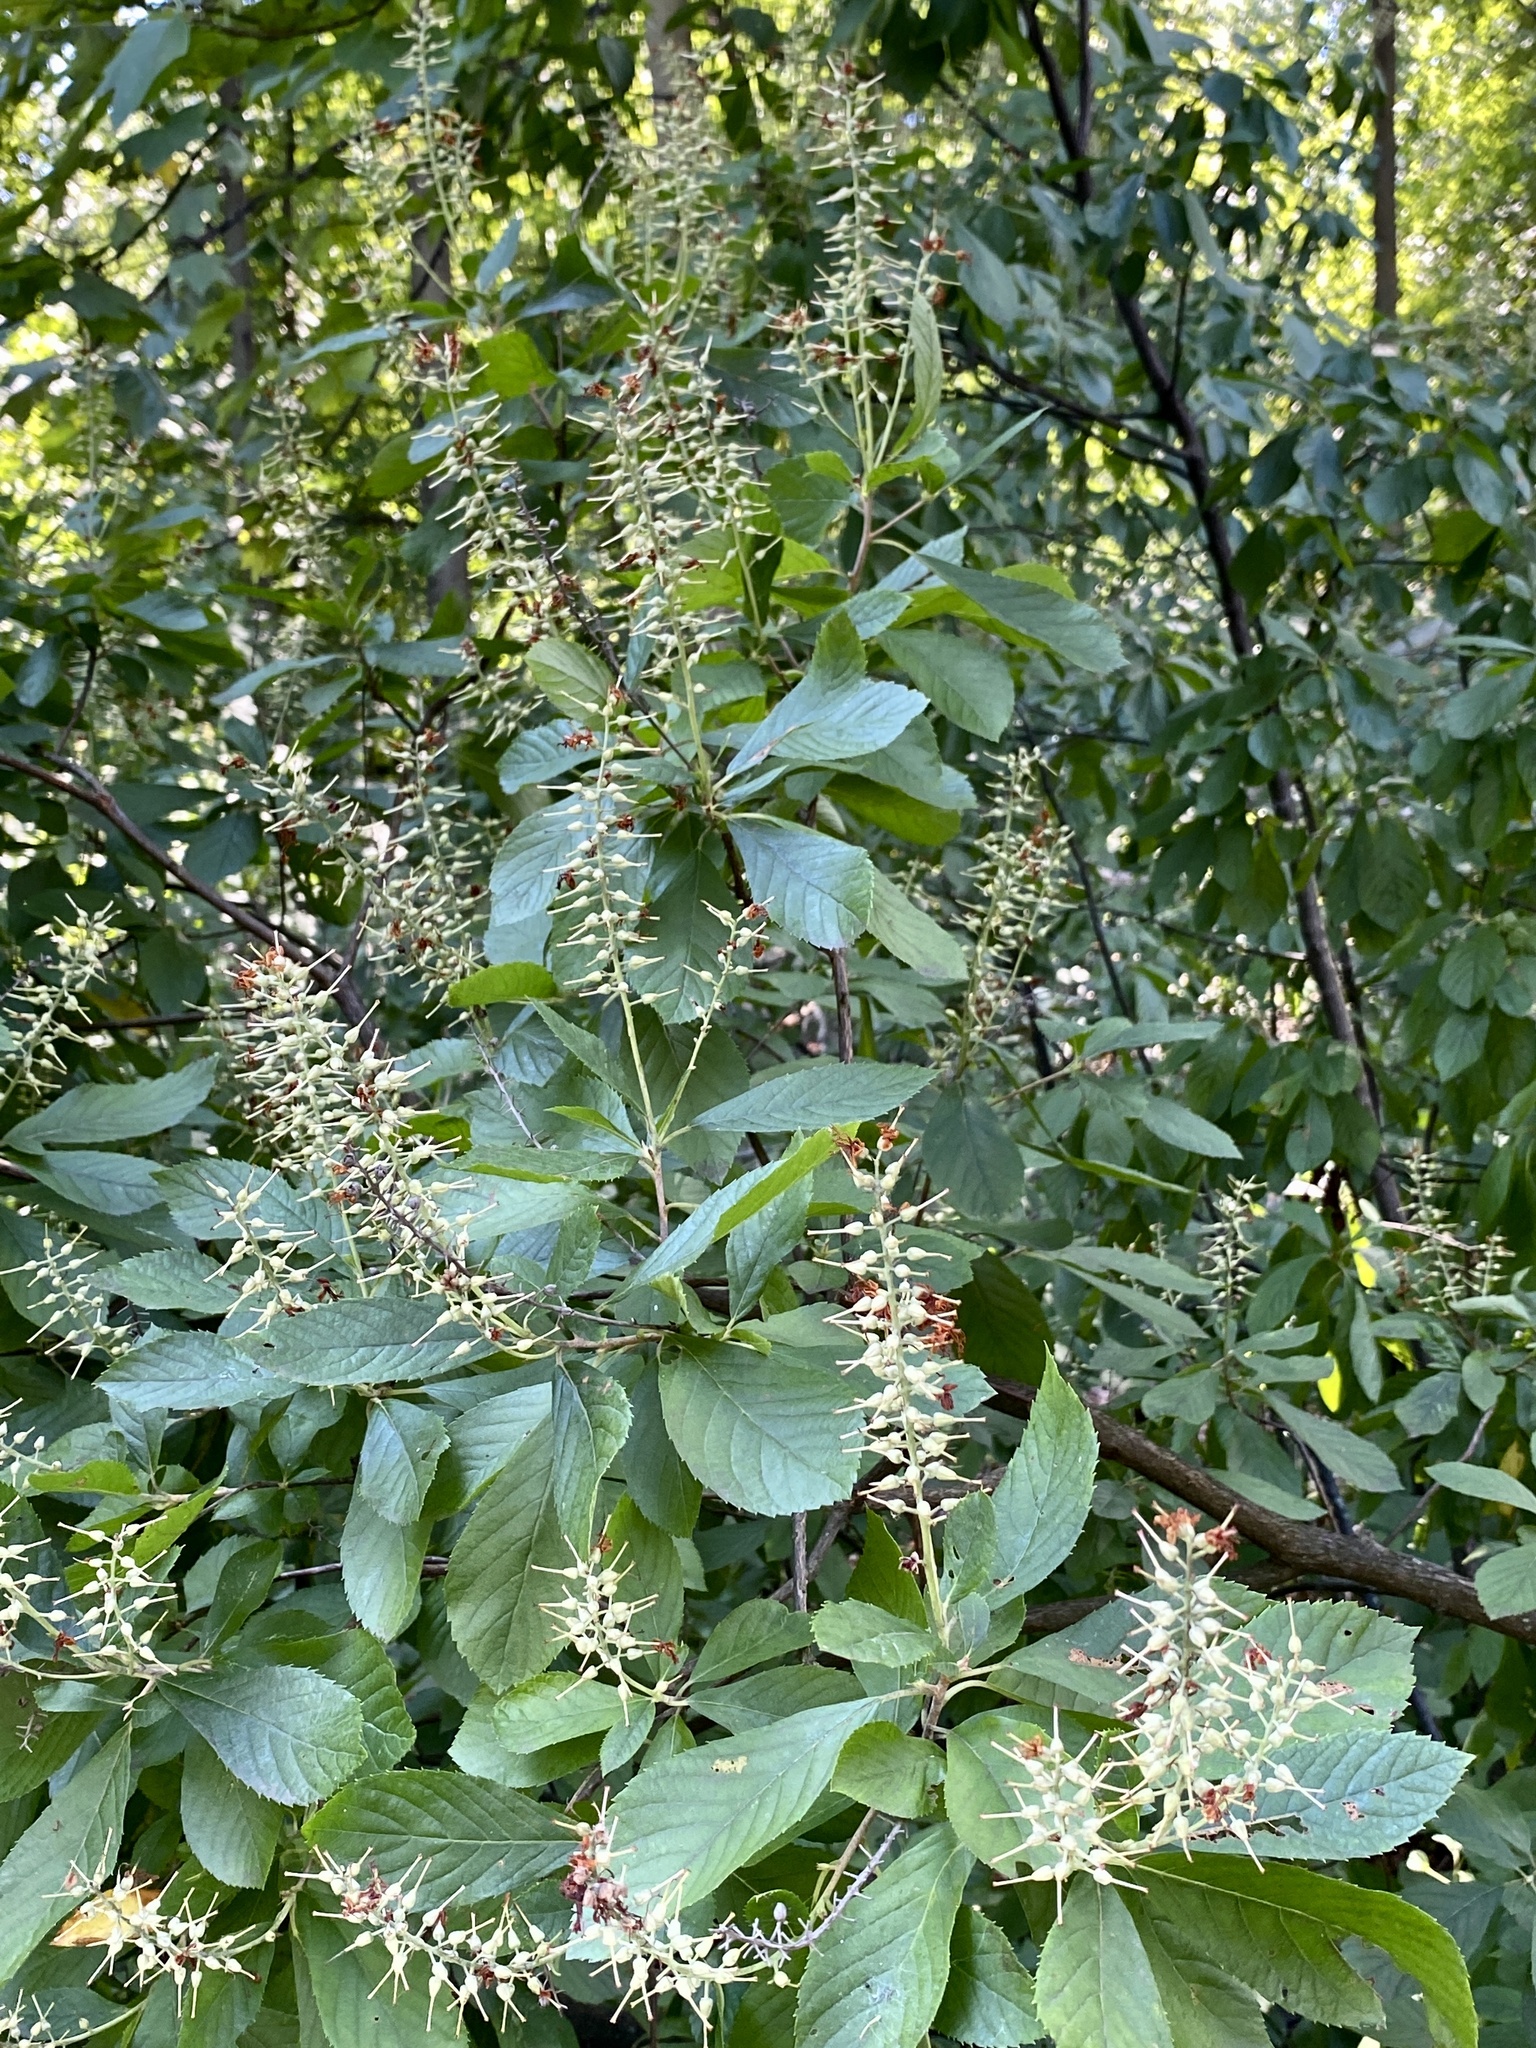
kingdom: Plantae
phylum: Tracheophyta
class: Magnoliopsida
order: Ericales
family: Clethraceae
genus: Clethra
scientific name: Clethra alnifolia
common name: Sweet pepperbush
